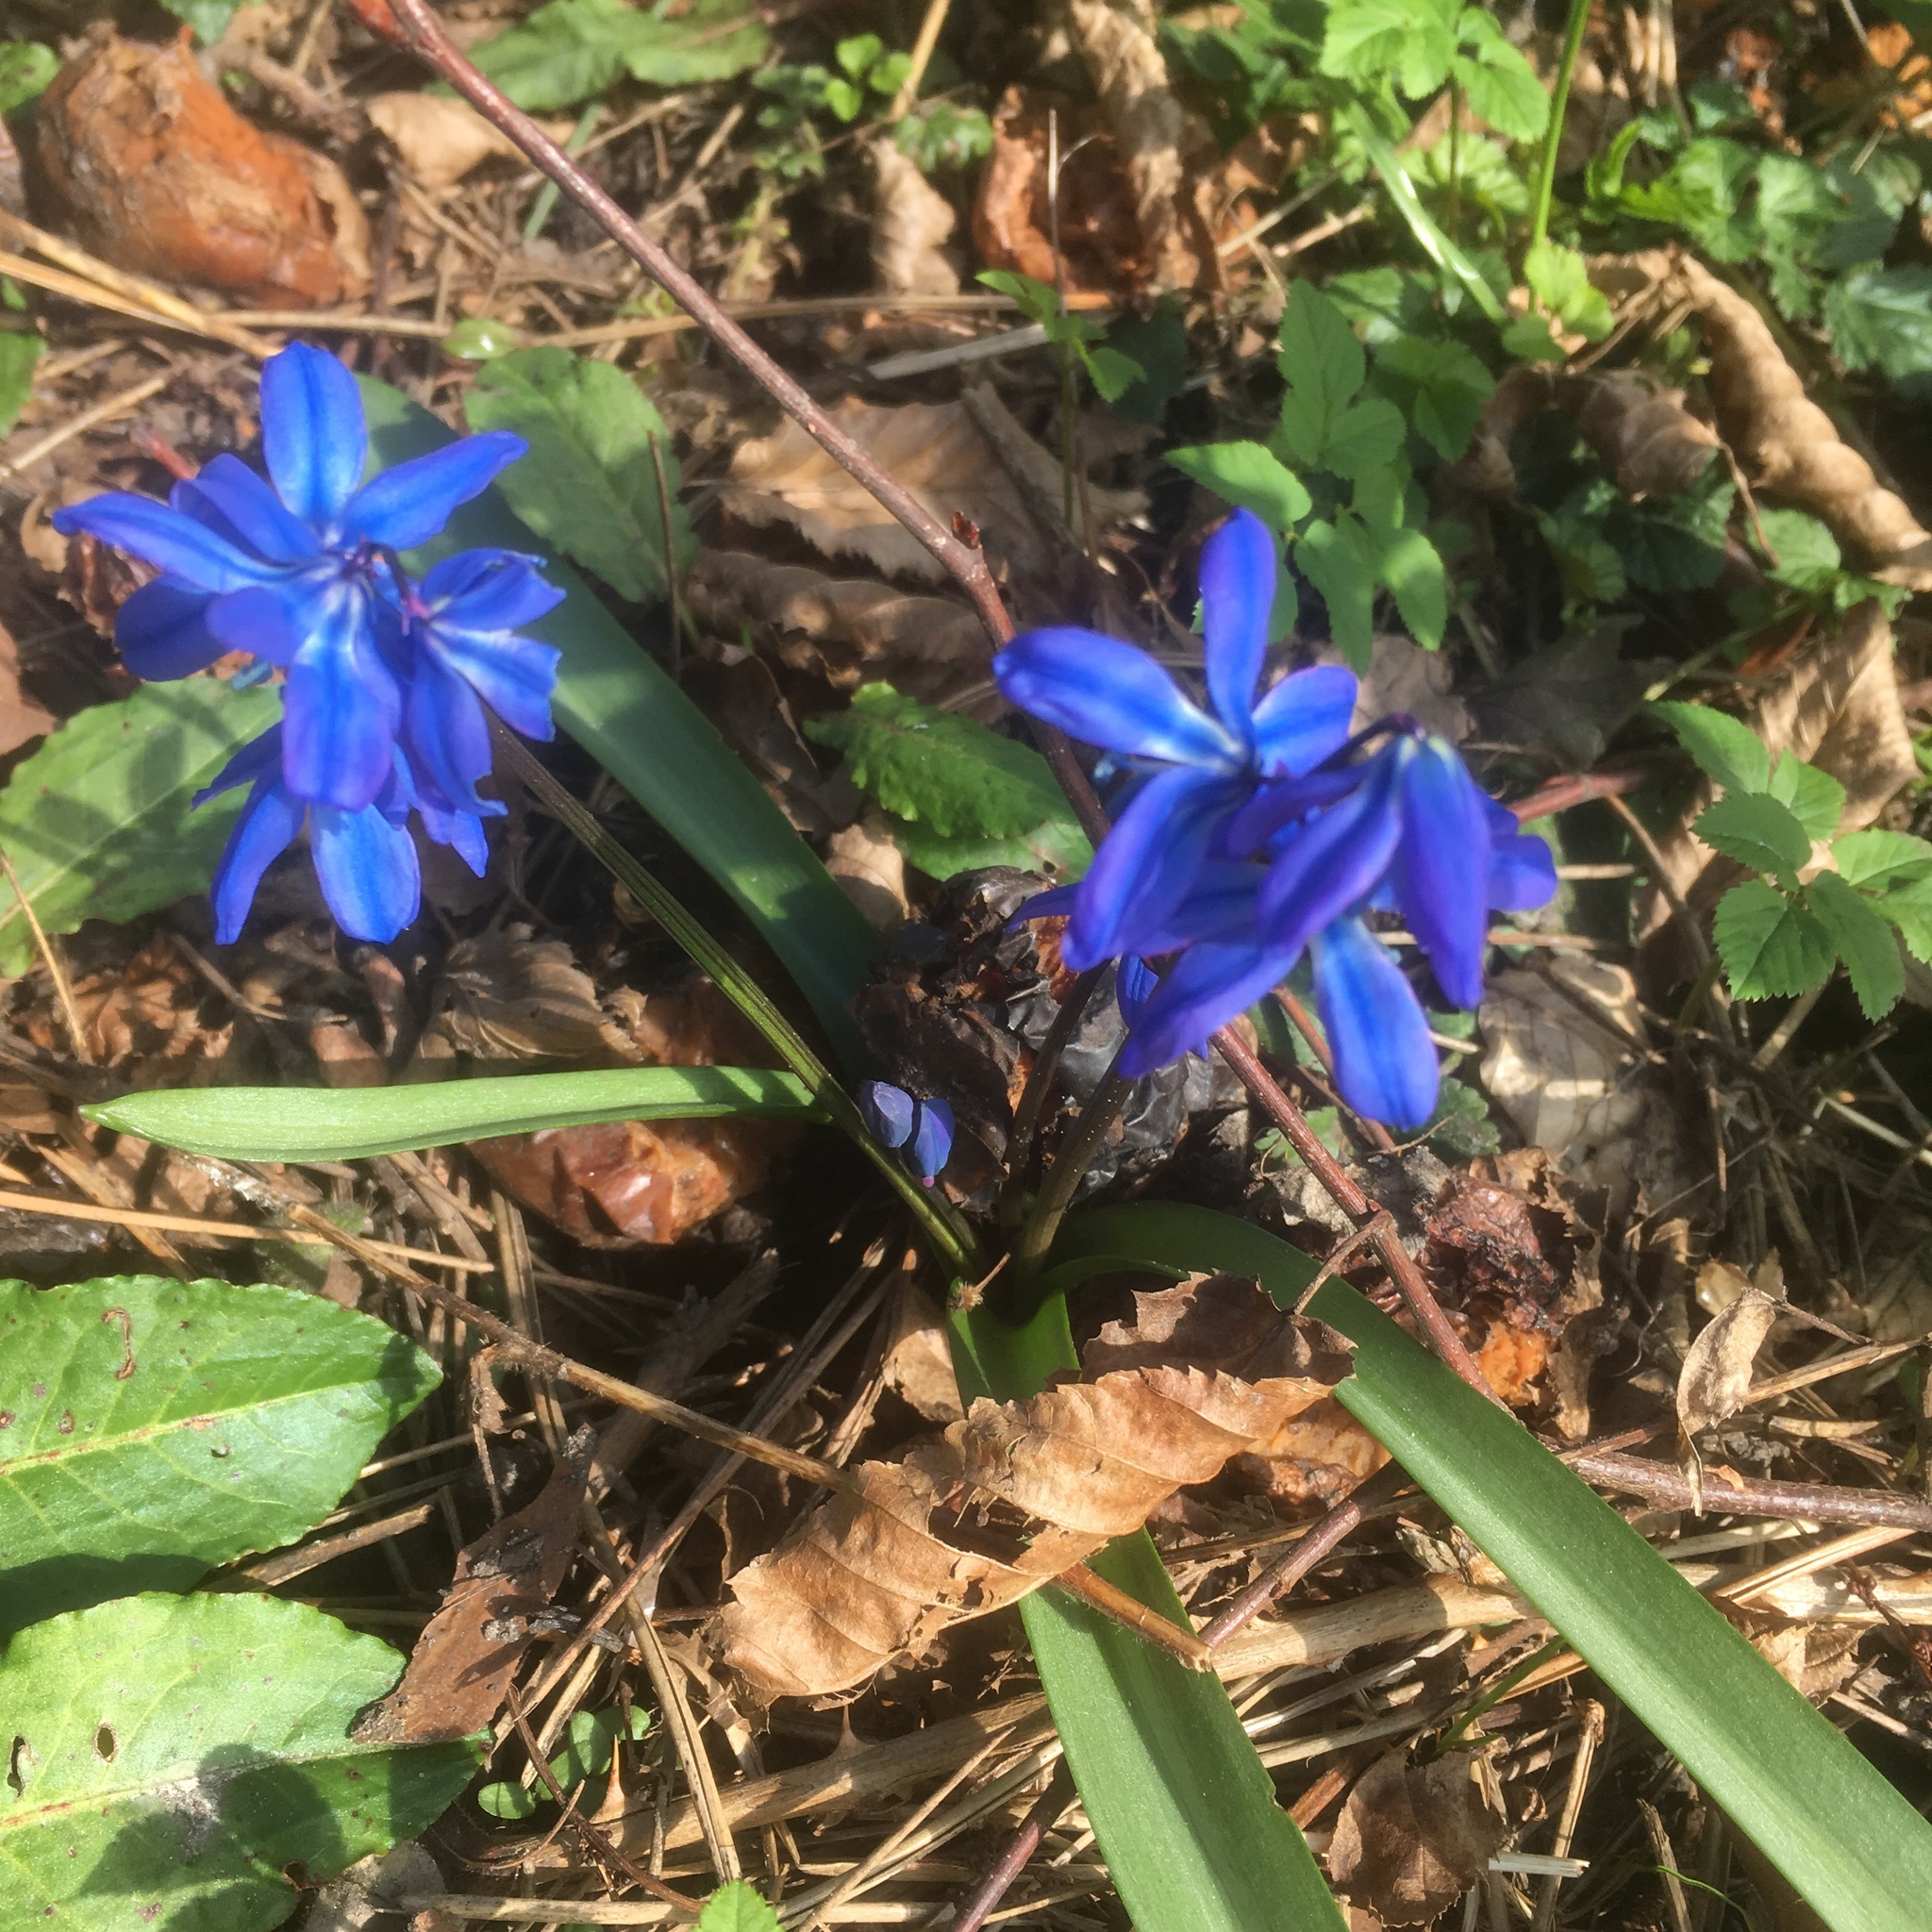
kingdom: Plantae
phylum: Tracheophyta
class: Liliopsida
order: Asparagales
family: Asparagaceae
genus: Scilla
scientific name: Scilla siberica
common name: Siberian squill
